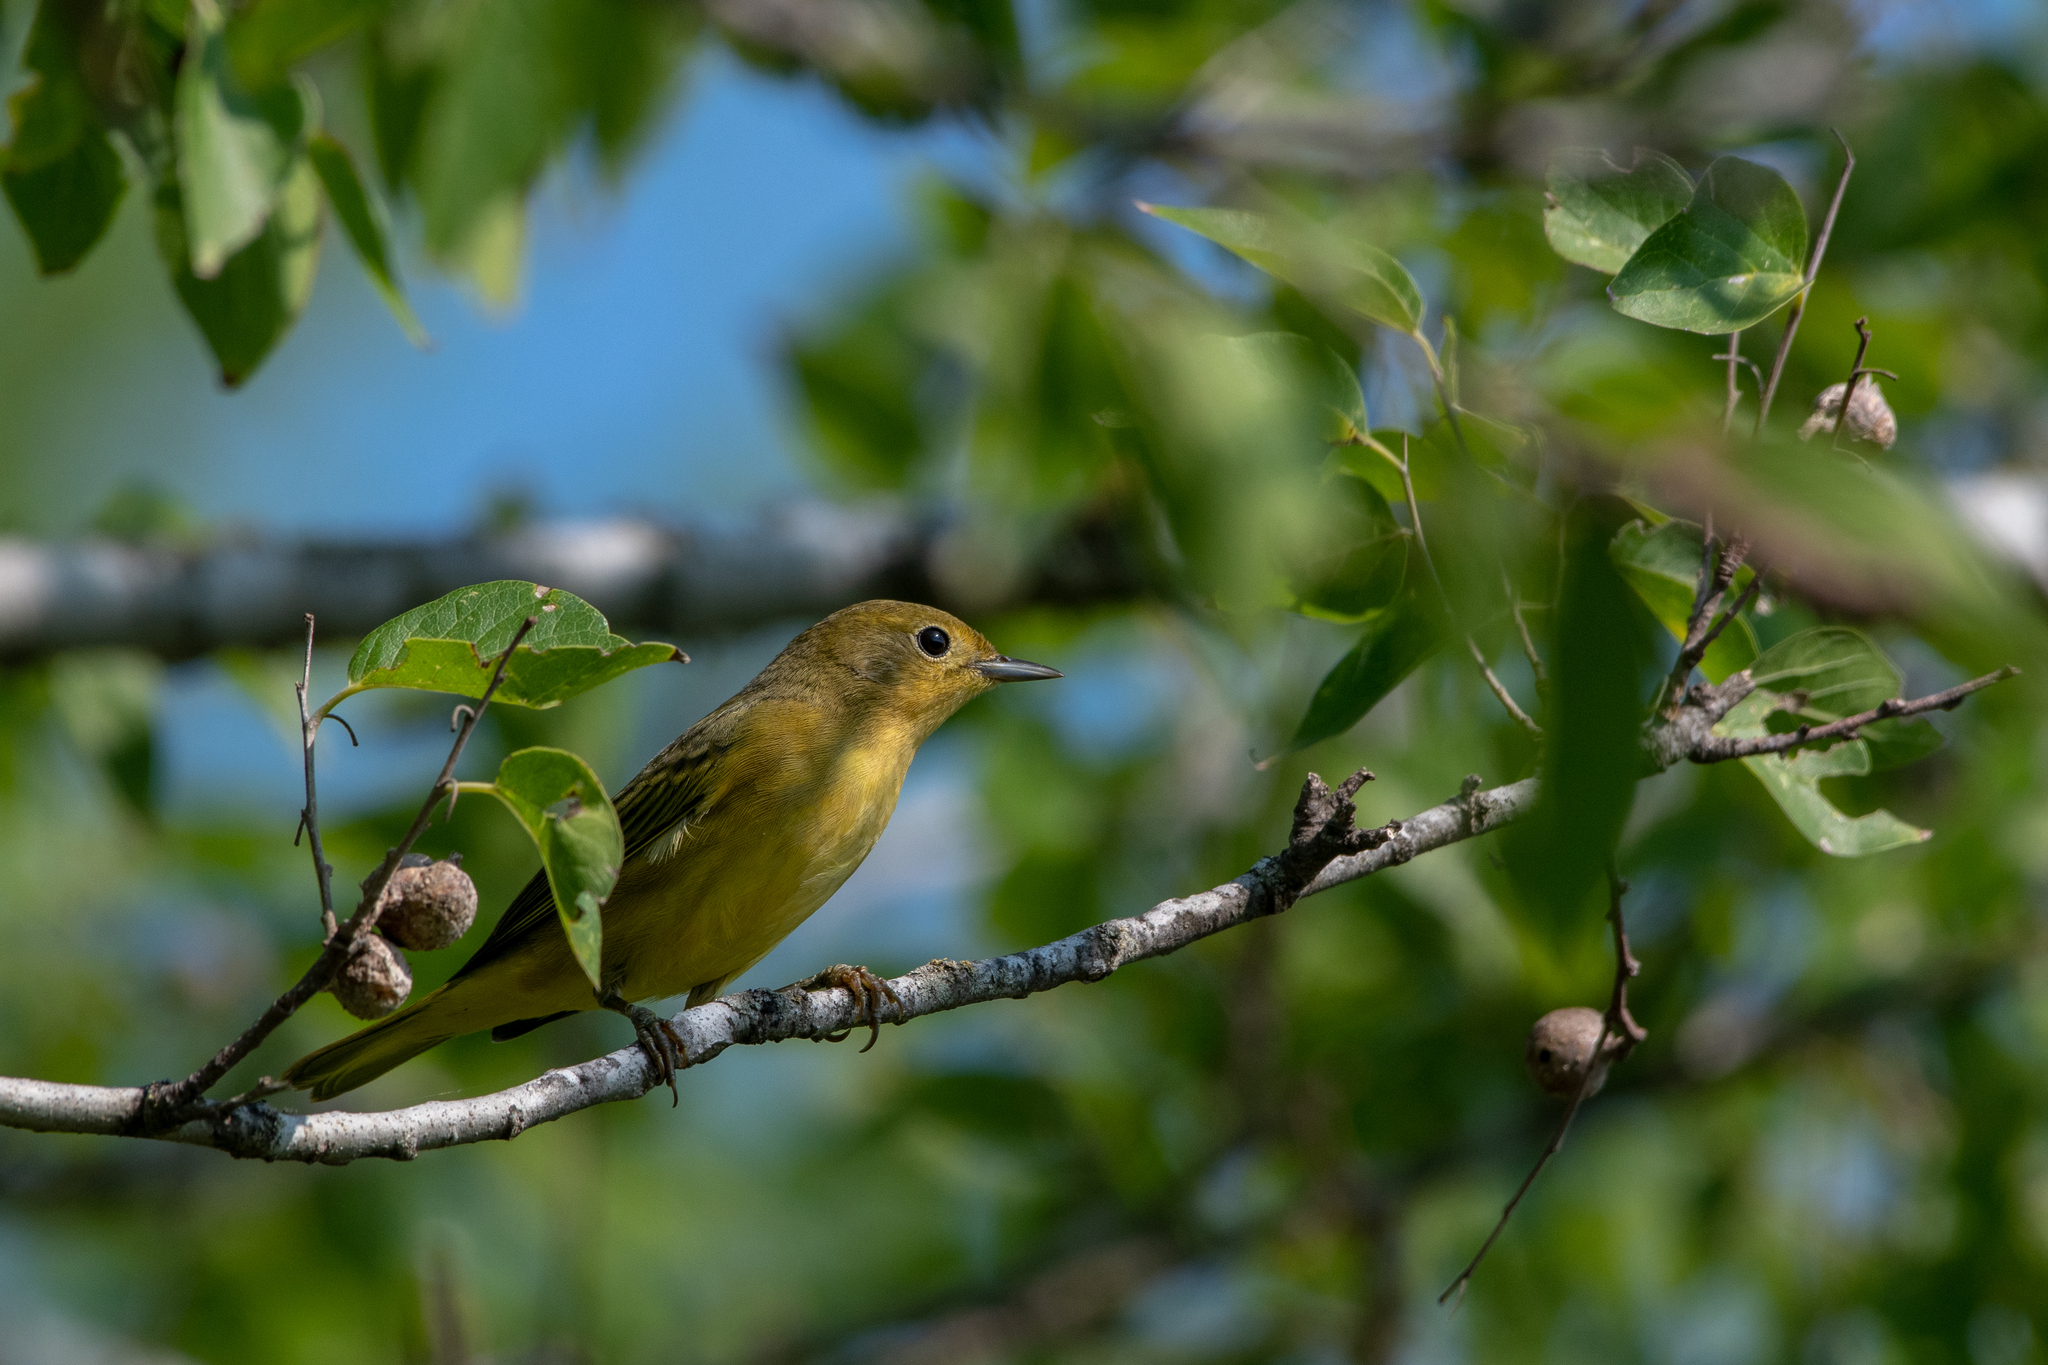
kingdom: Animalia
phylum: Chordata
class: Aves
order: Passeriformes
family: Parulidae
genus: Setophaga
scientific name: Setophaga petechia
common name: Yellow warbler
